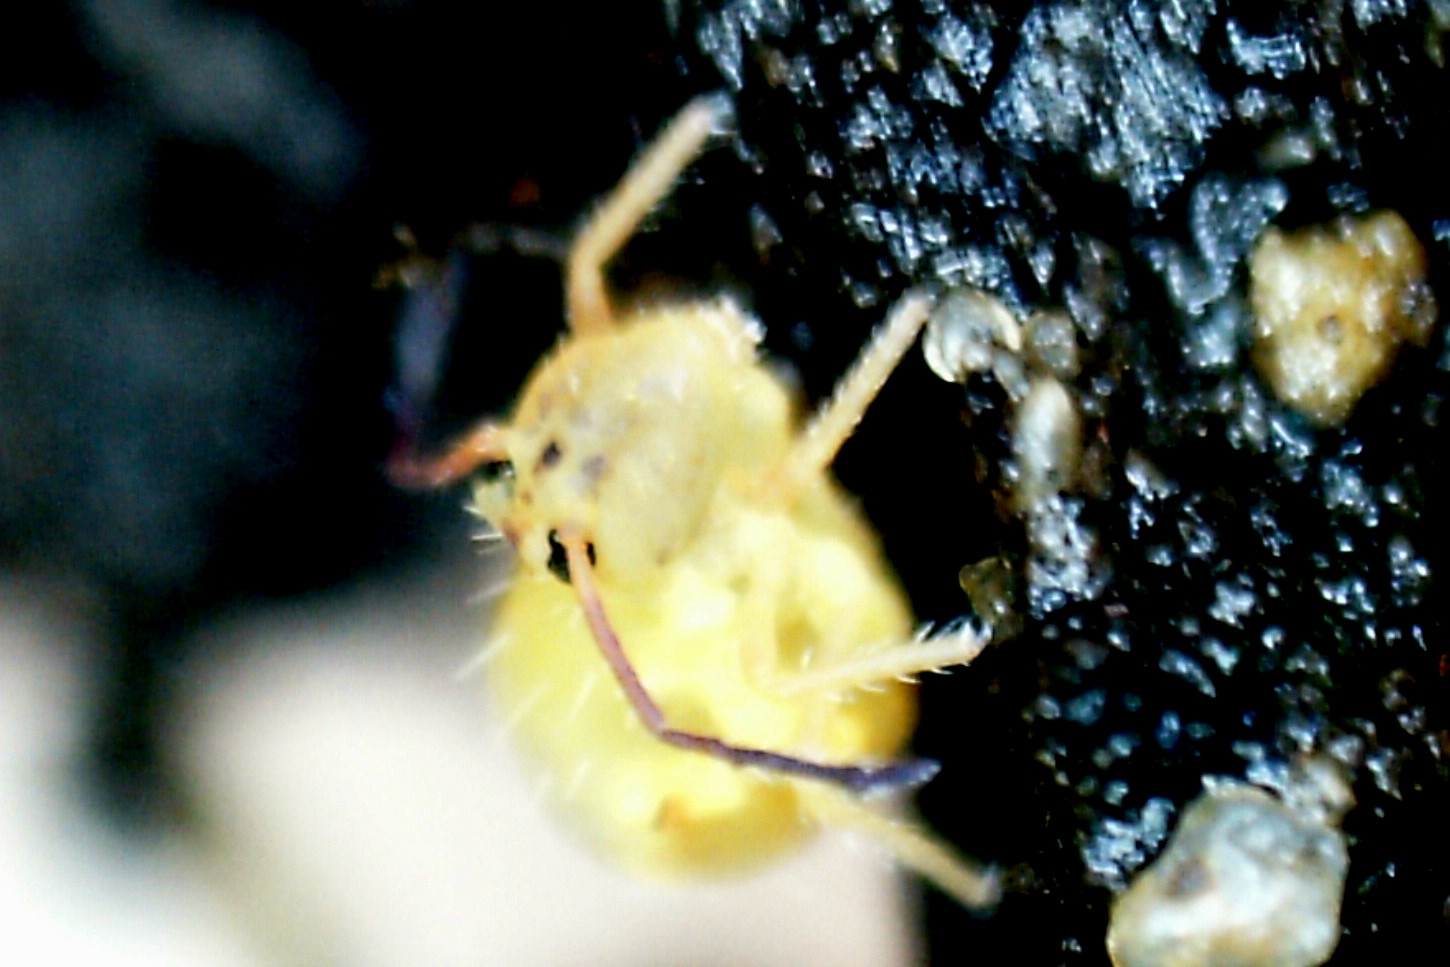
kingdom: Animalia
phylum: Arthropoda
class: Collembola
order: Symphypleona
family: Dicyrtomidae
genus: Dicyrtomina
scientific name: Dicyrtomina minuta
